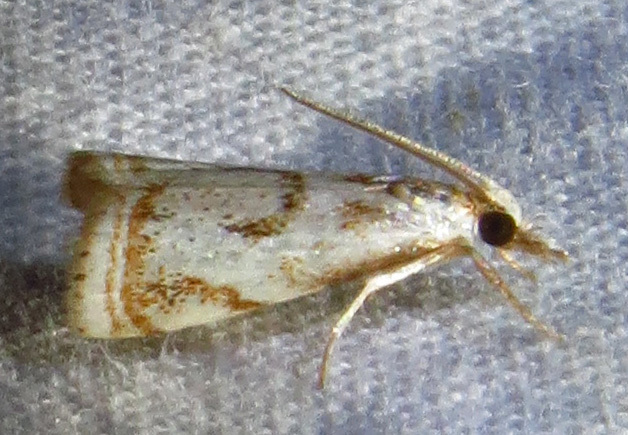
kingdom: Animalia
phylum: Arthropoda
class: Insecta
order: Lepidoptera
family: Crambidae
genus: Microcrambus
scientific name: Microcrambus elegans
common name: Elegant grass-veneer
